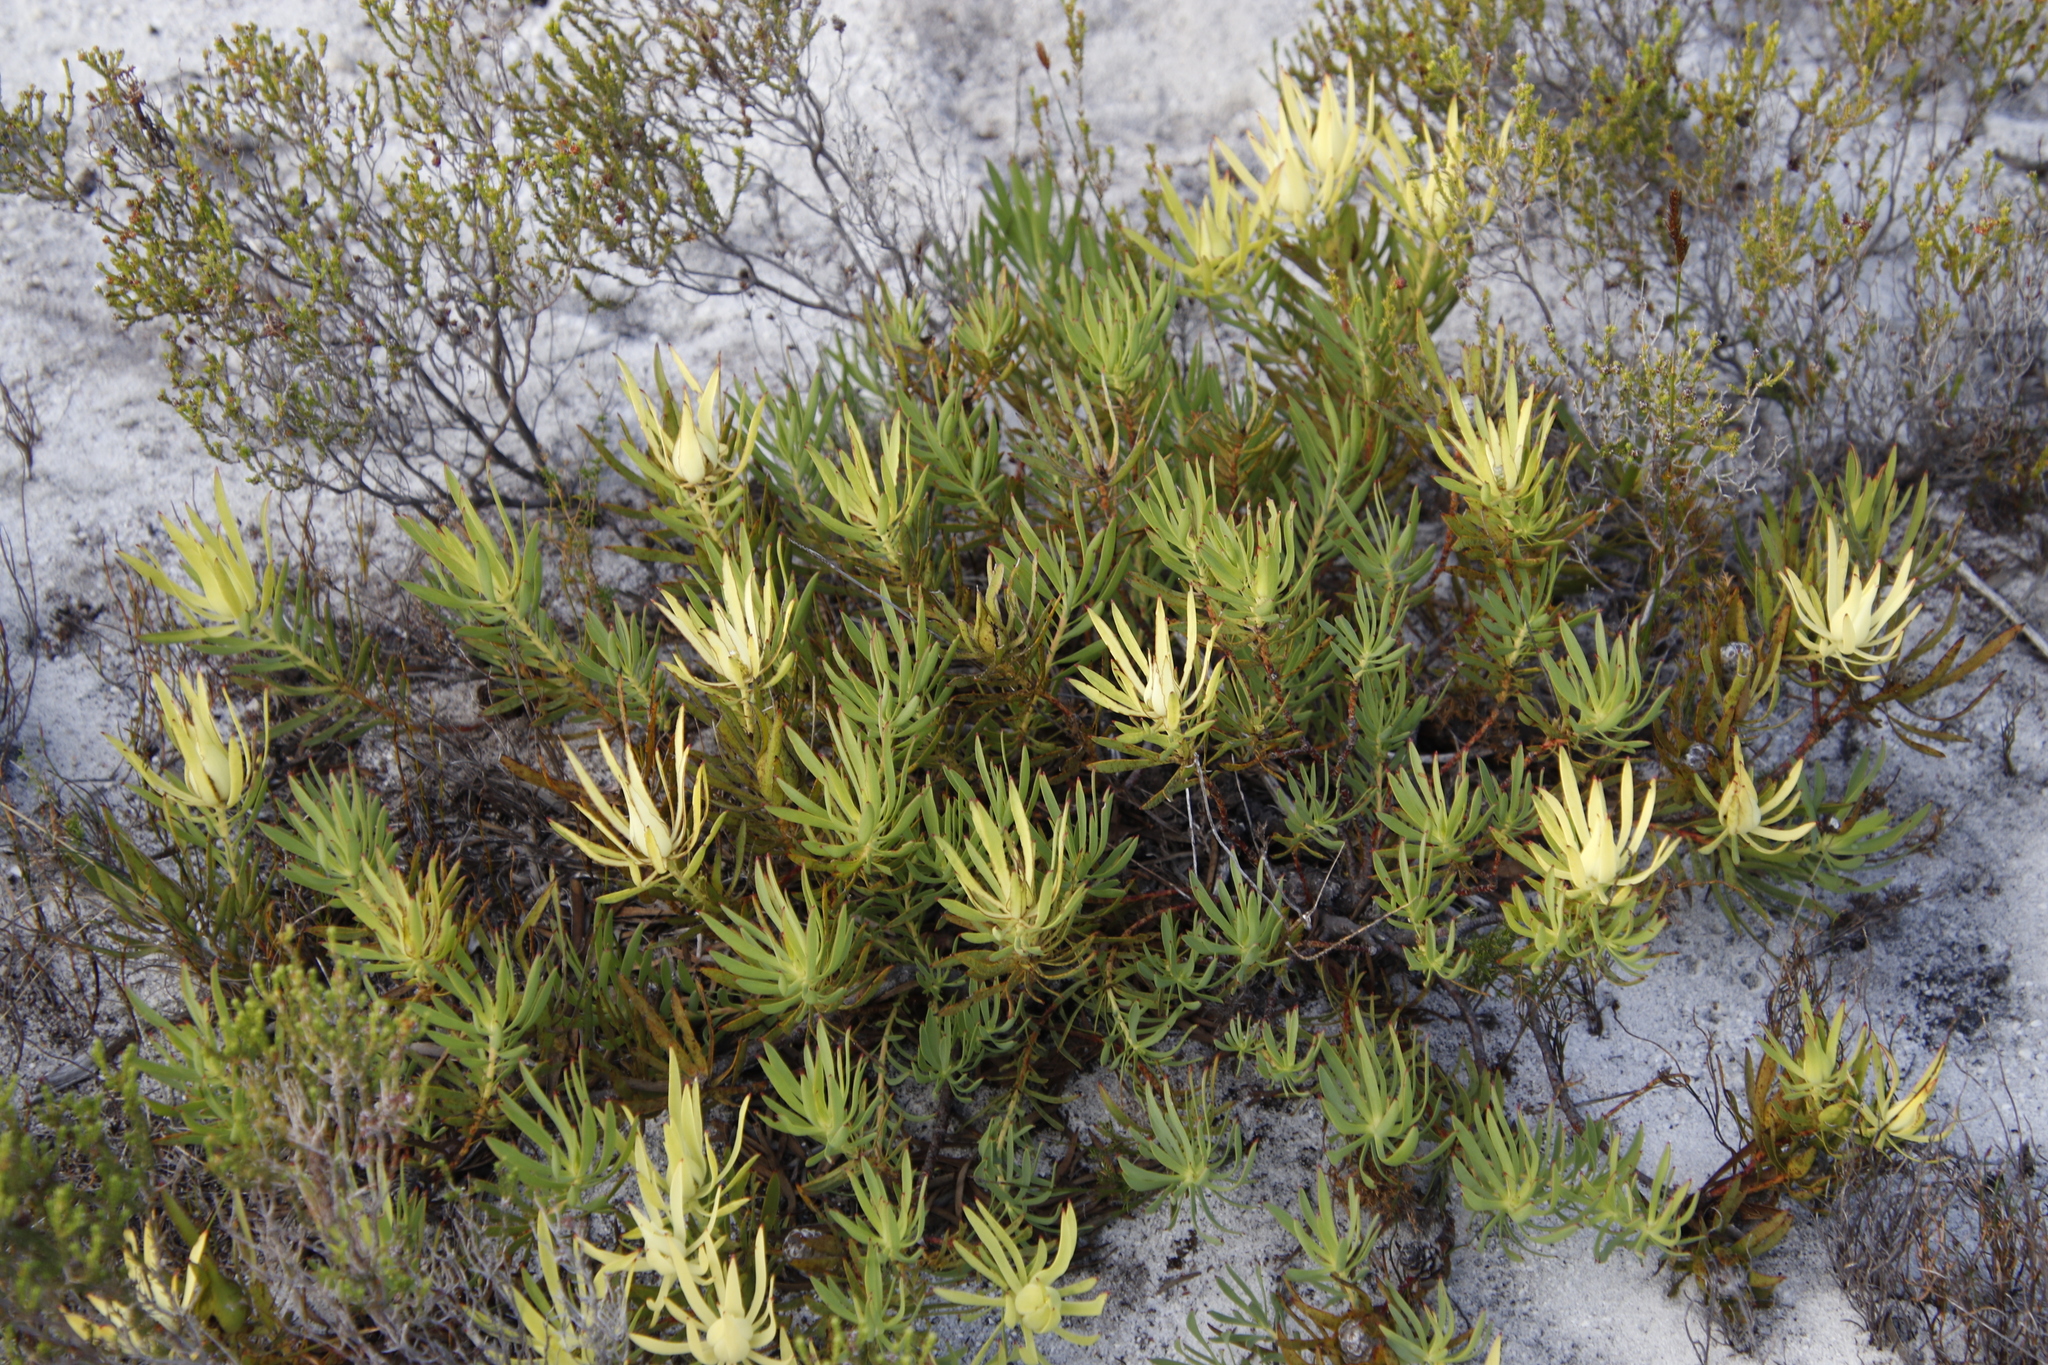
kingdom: Plantae
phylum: Tracheophyta
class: Magnoliopsida
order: Proteales
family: Proteaceae
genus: Leucadendron
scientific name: Leucadendron salignum
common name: Common sunshine conebush
